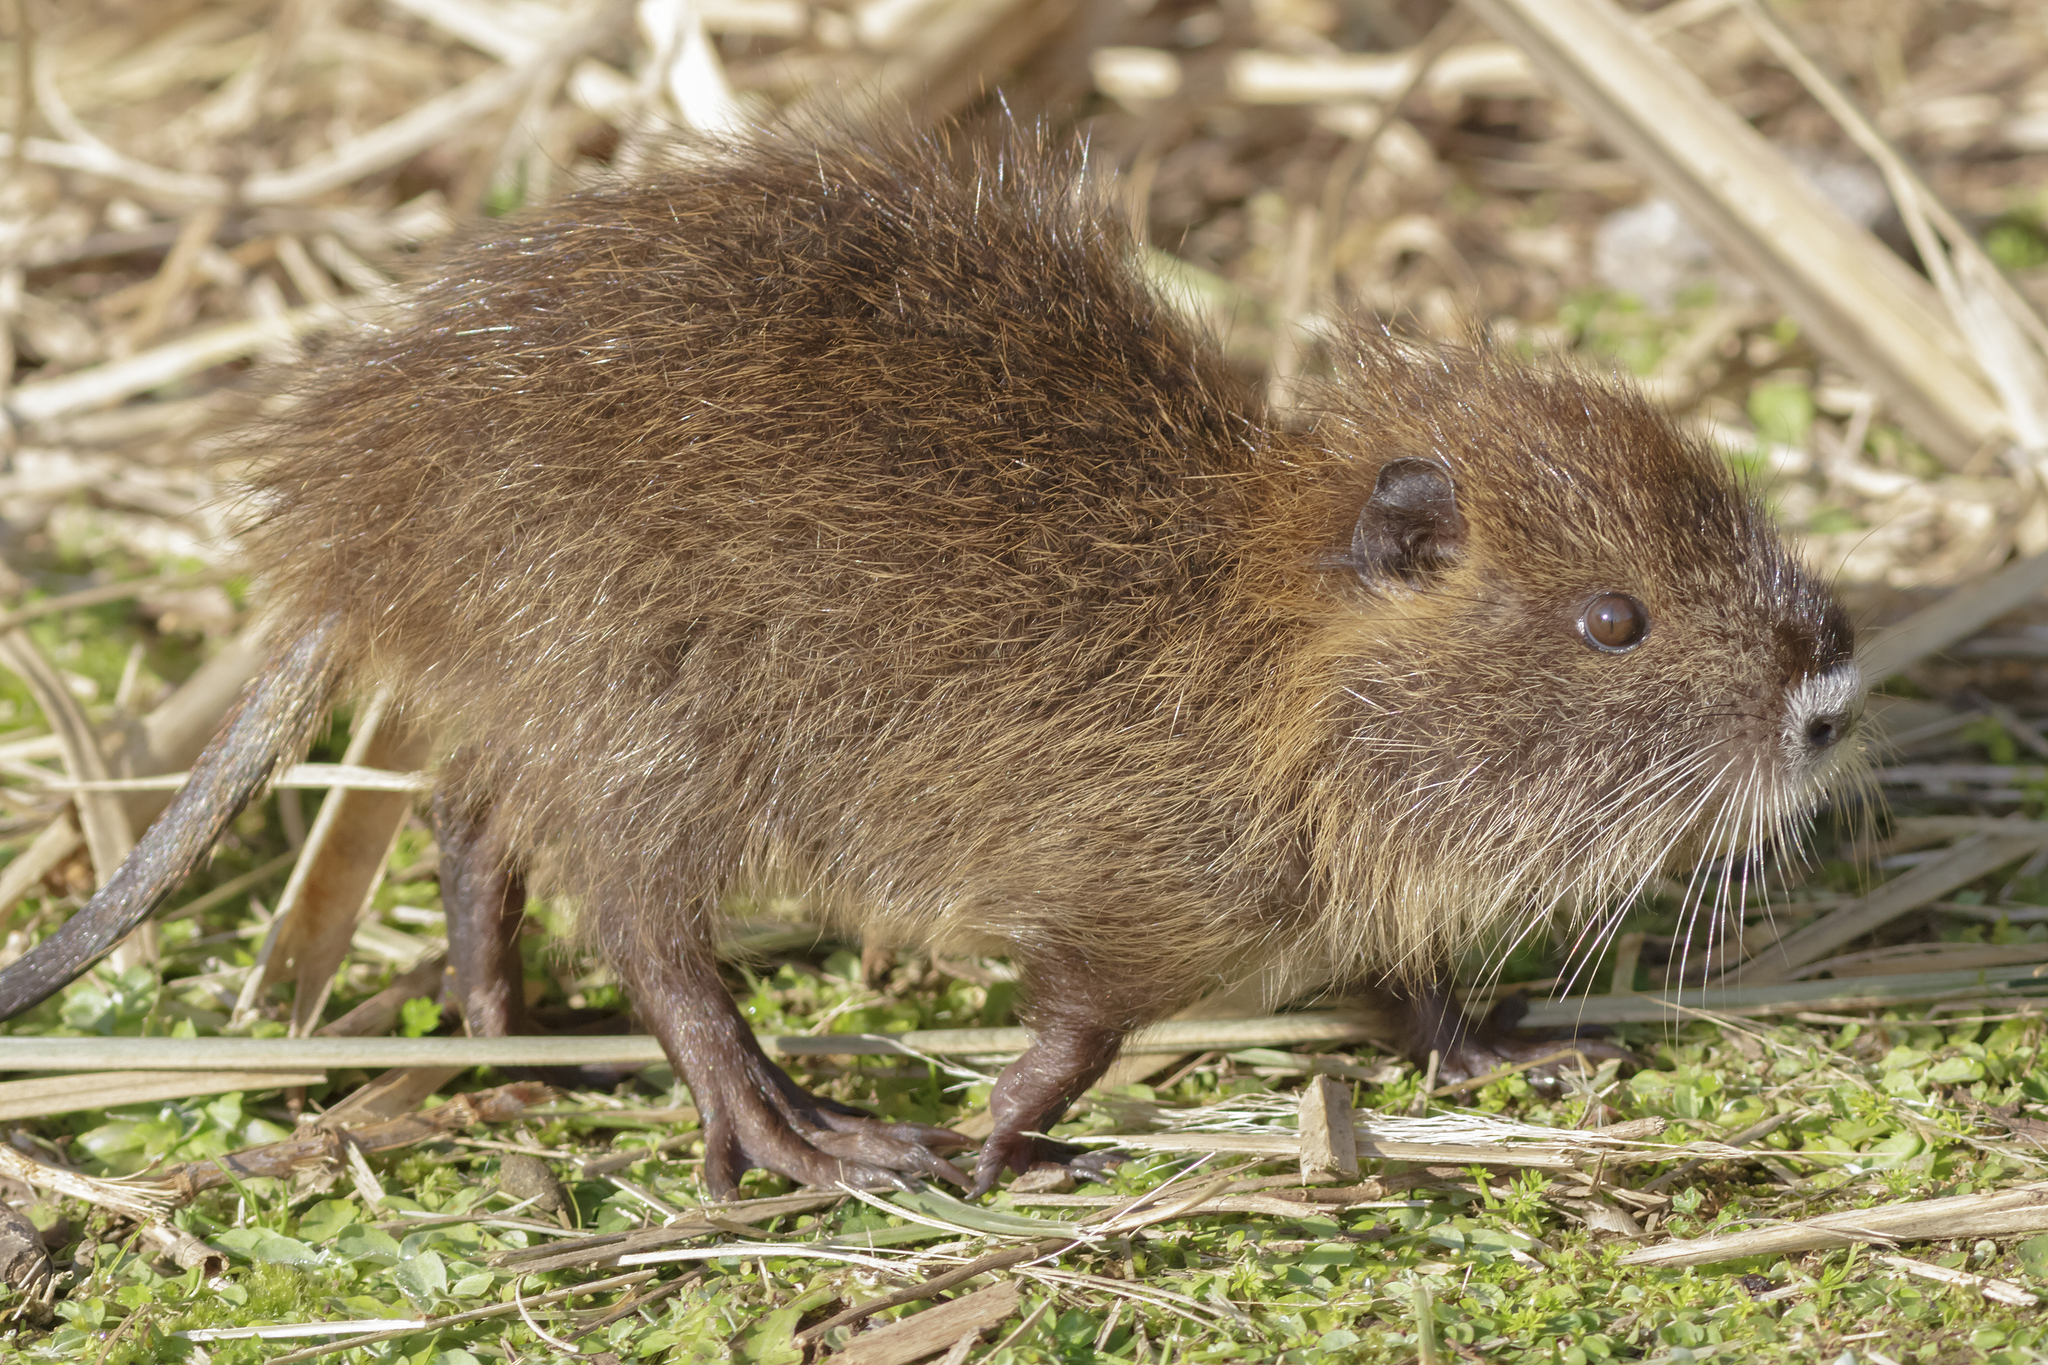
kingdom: Animalia
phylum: Chordata
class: Mammalia
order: Rodentia
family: Myocastoridae
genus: Myocastor
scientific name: Myocastor coypus
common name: Coypu
